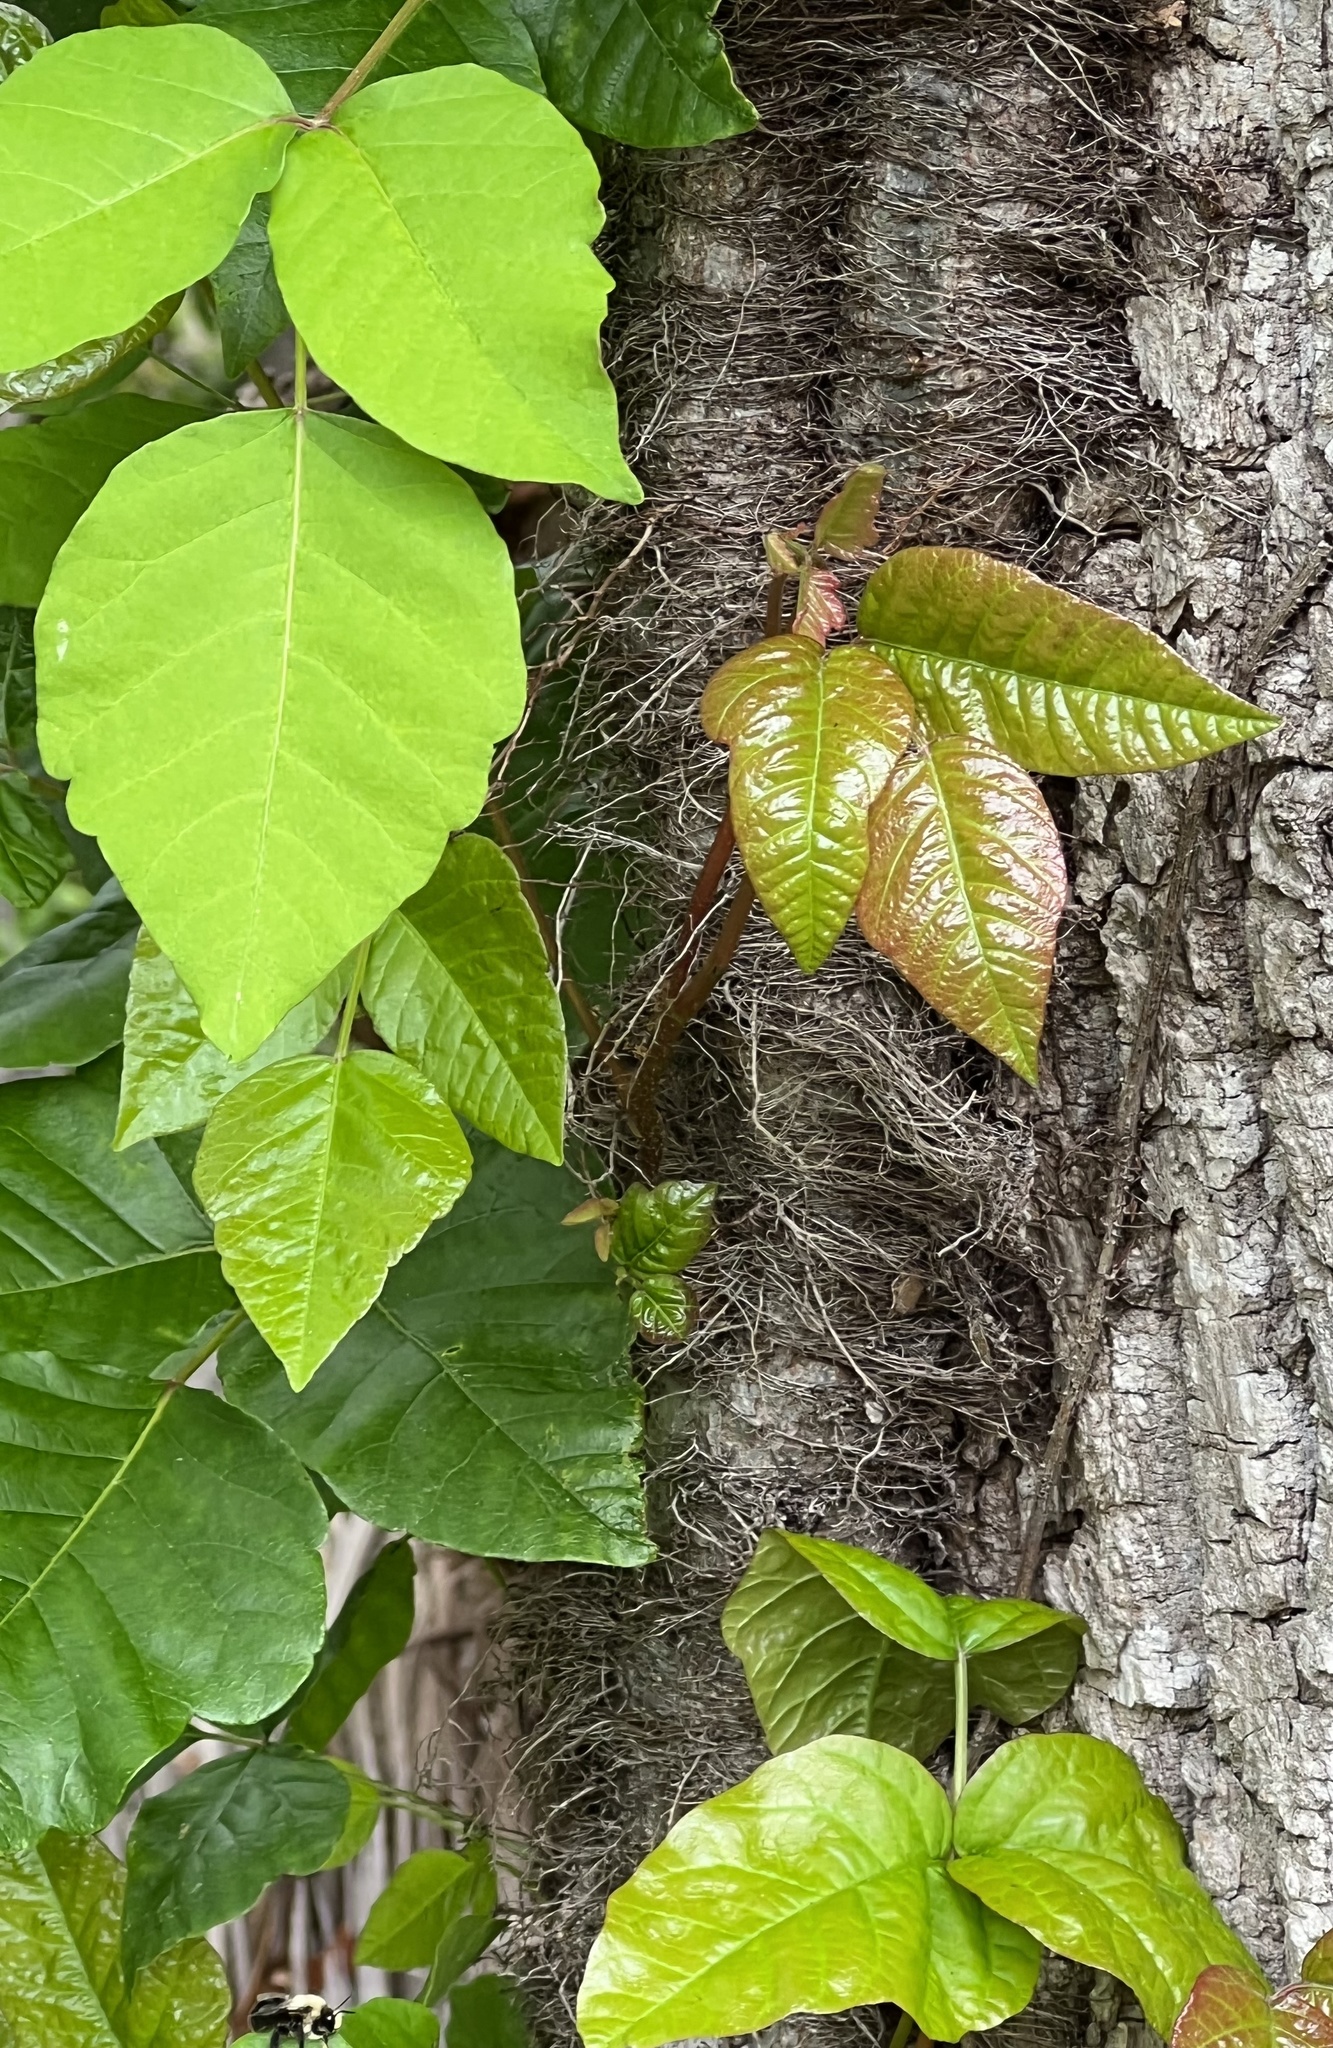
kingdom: Plantae
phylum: Tracheophyta
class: Magnoliopsida
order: Sapindales
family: Anacardiaceae
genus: Toxicodendron
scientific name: Toxicodendron radicans
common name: Poison ivy
